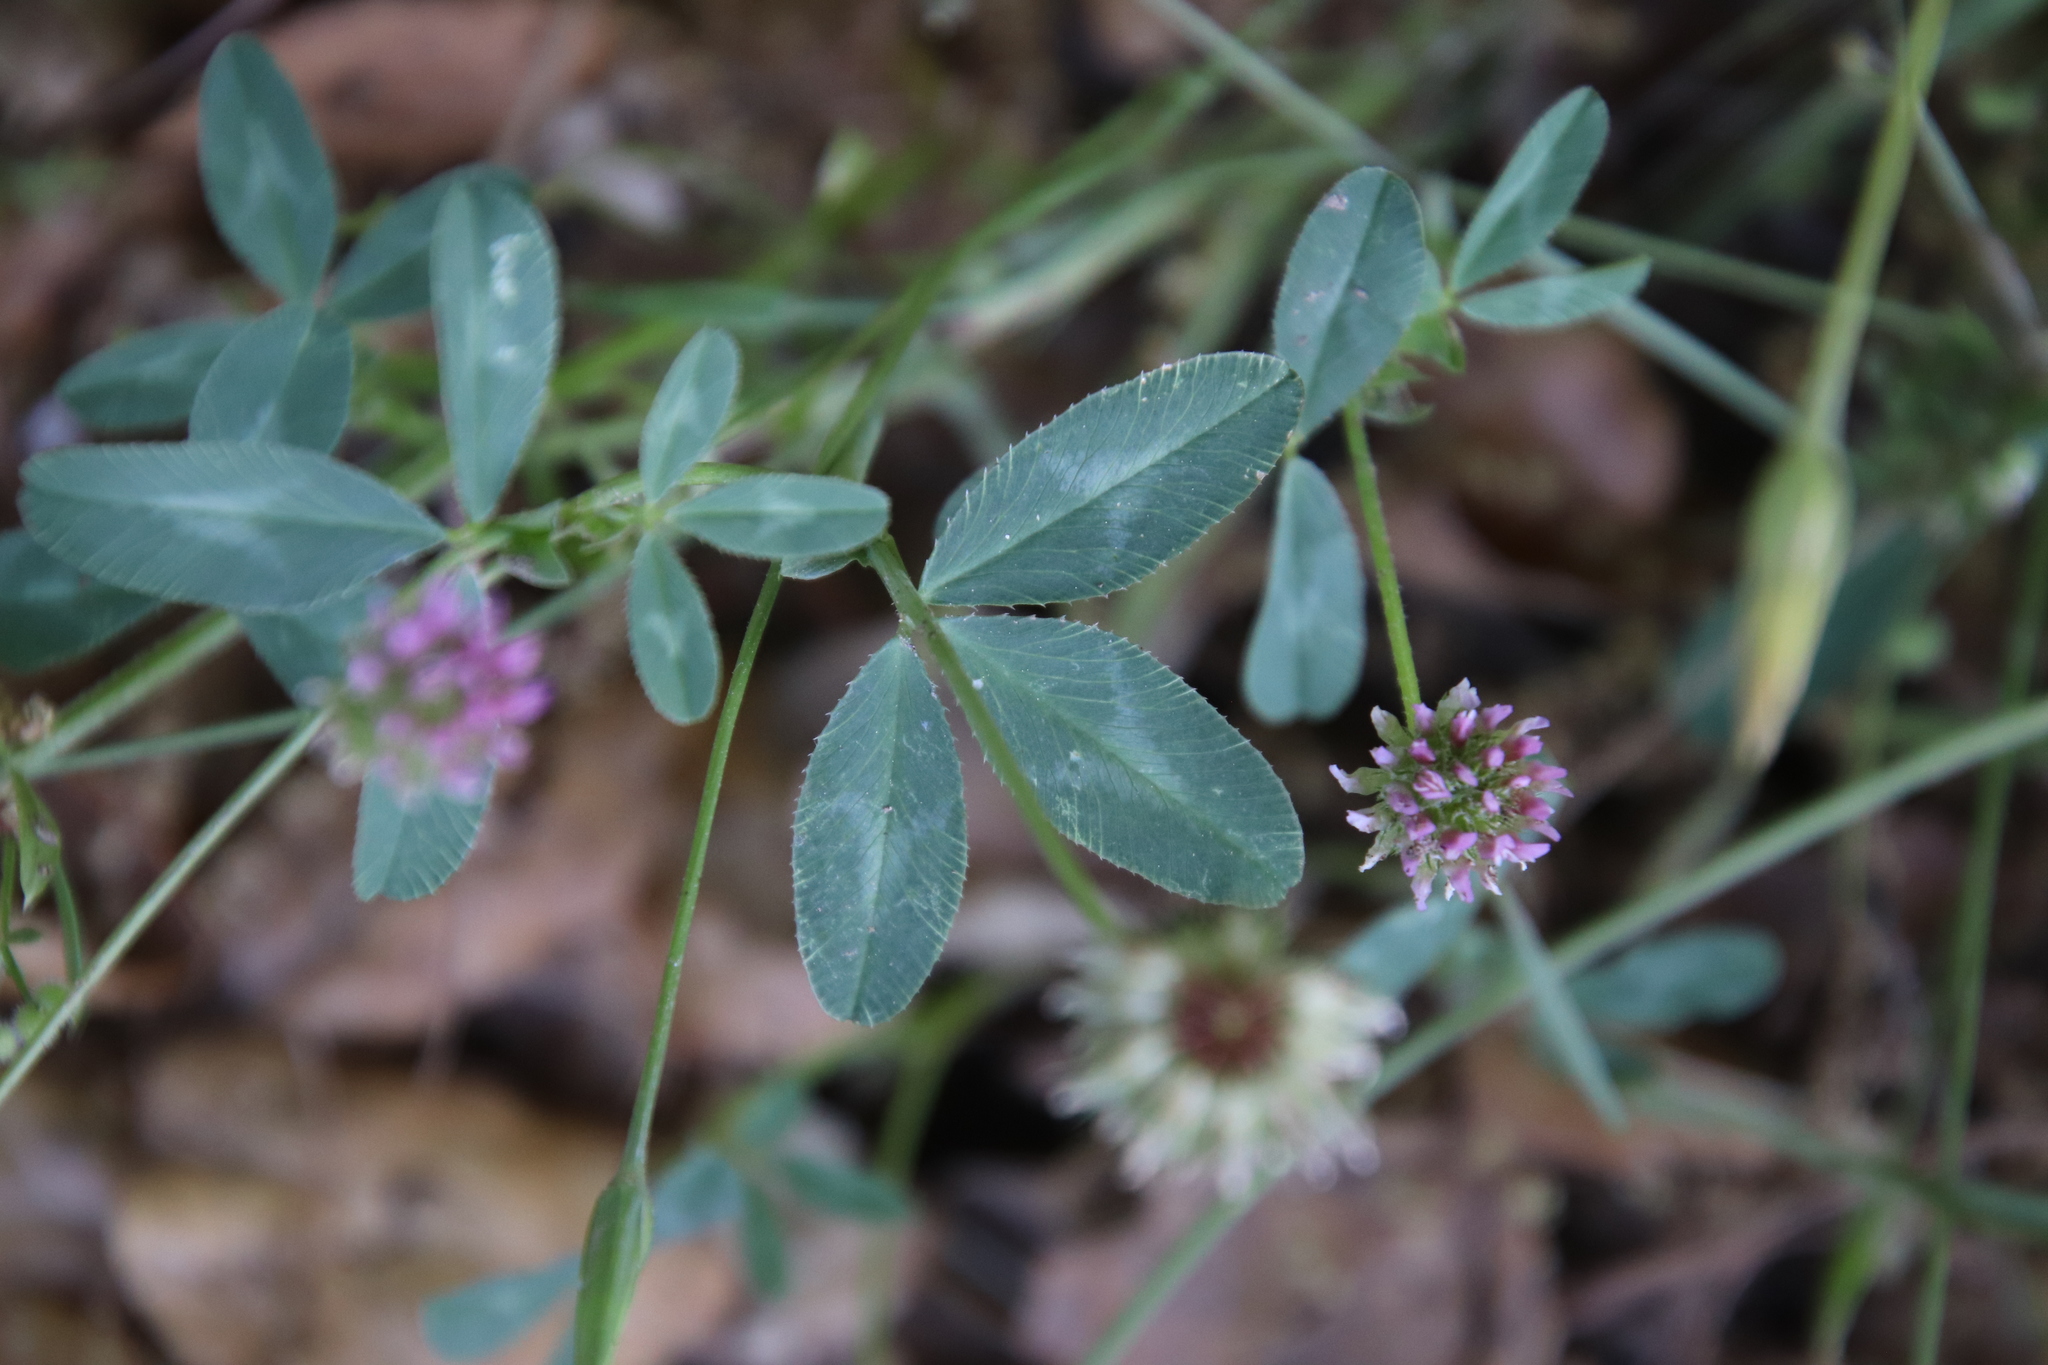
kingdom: Plantae
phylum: Tracheophyta
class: Magnoliopsida
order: Fabales
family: Fabaceae
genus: Trifolium
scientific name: Trifolium ciliolatum
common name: Foothill clover
